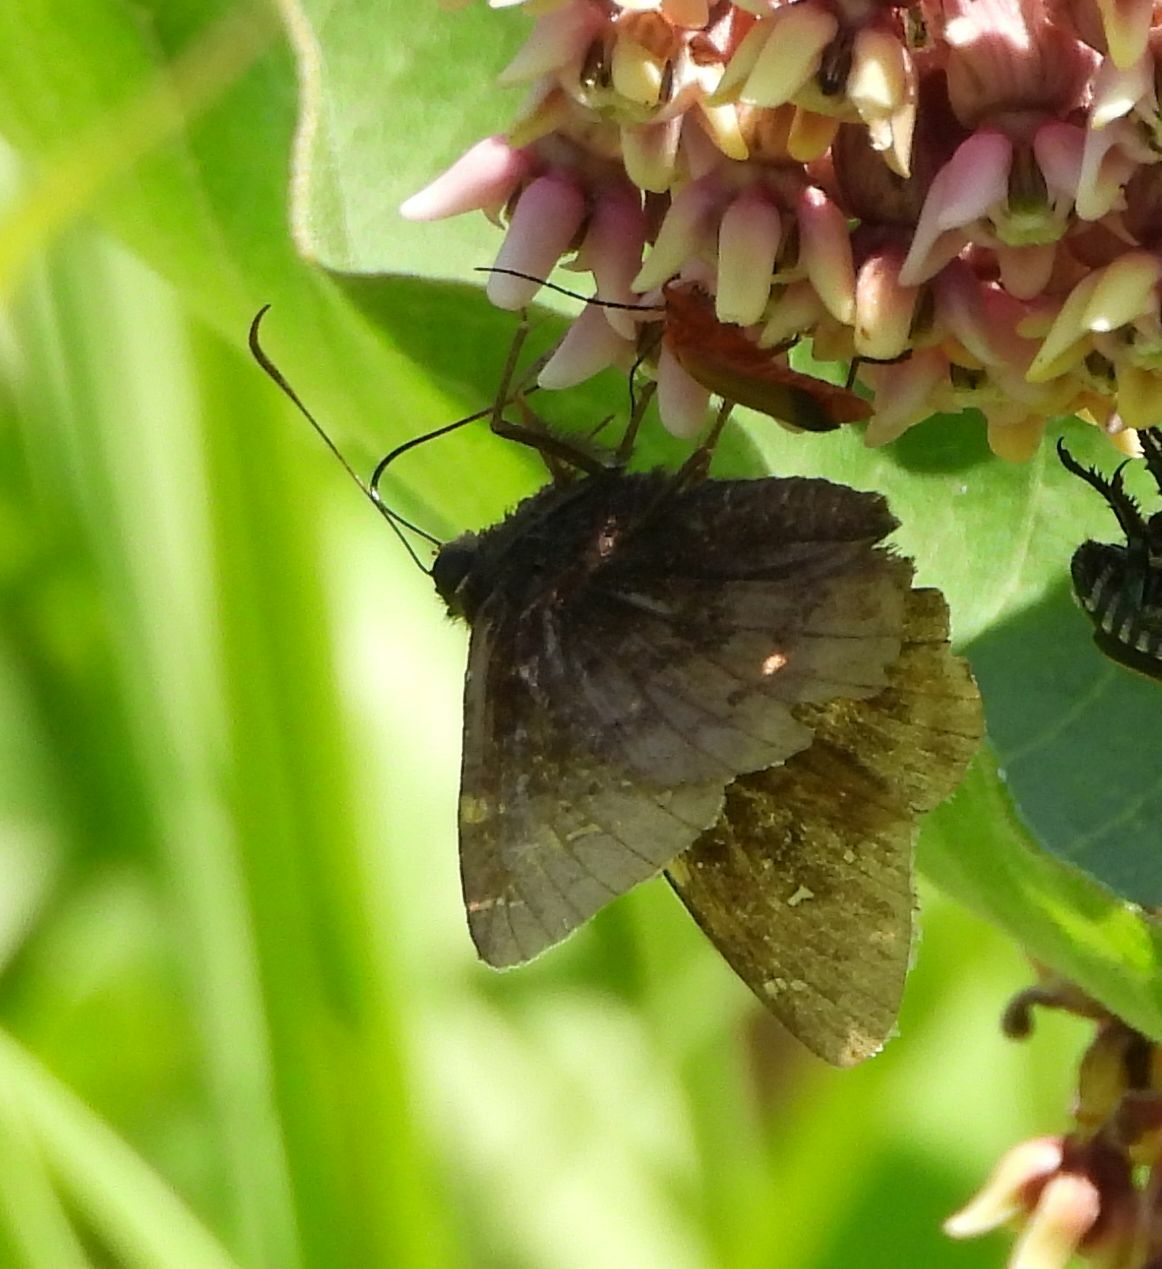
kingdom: Animalia
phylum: Arthropoda
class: Insecta
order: Lepidoptera
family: Hesperiidae
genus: Thorybes
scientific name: Thorybes pylades
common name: Northern cloudywing
